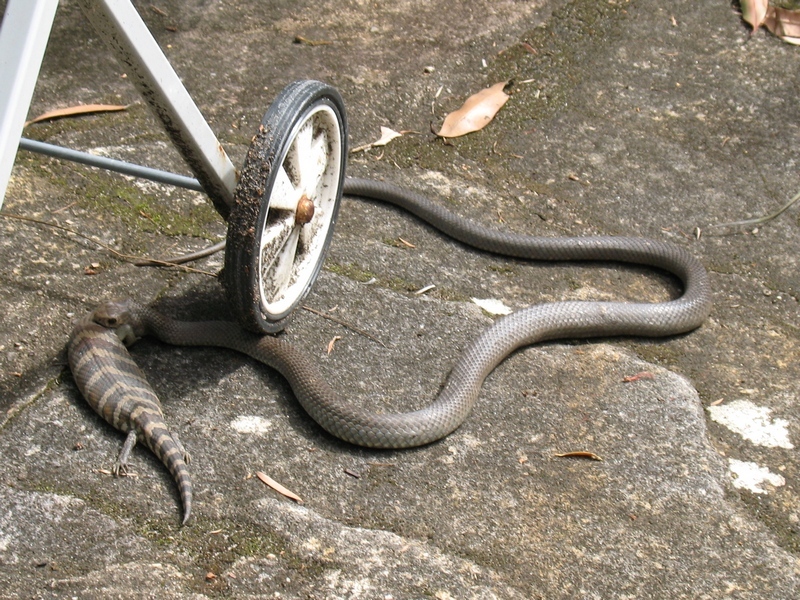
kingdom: Animalia
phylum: Chordata
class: Squamata
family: Elapidae
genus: Pseudonaja
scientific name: Pseudonaja textilis
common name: Eastern brown snake
